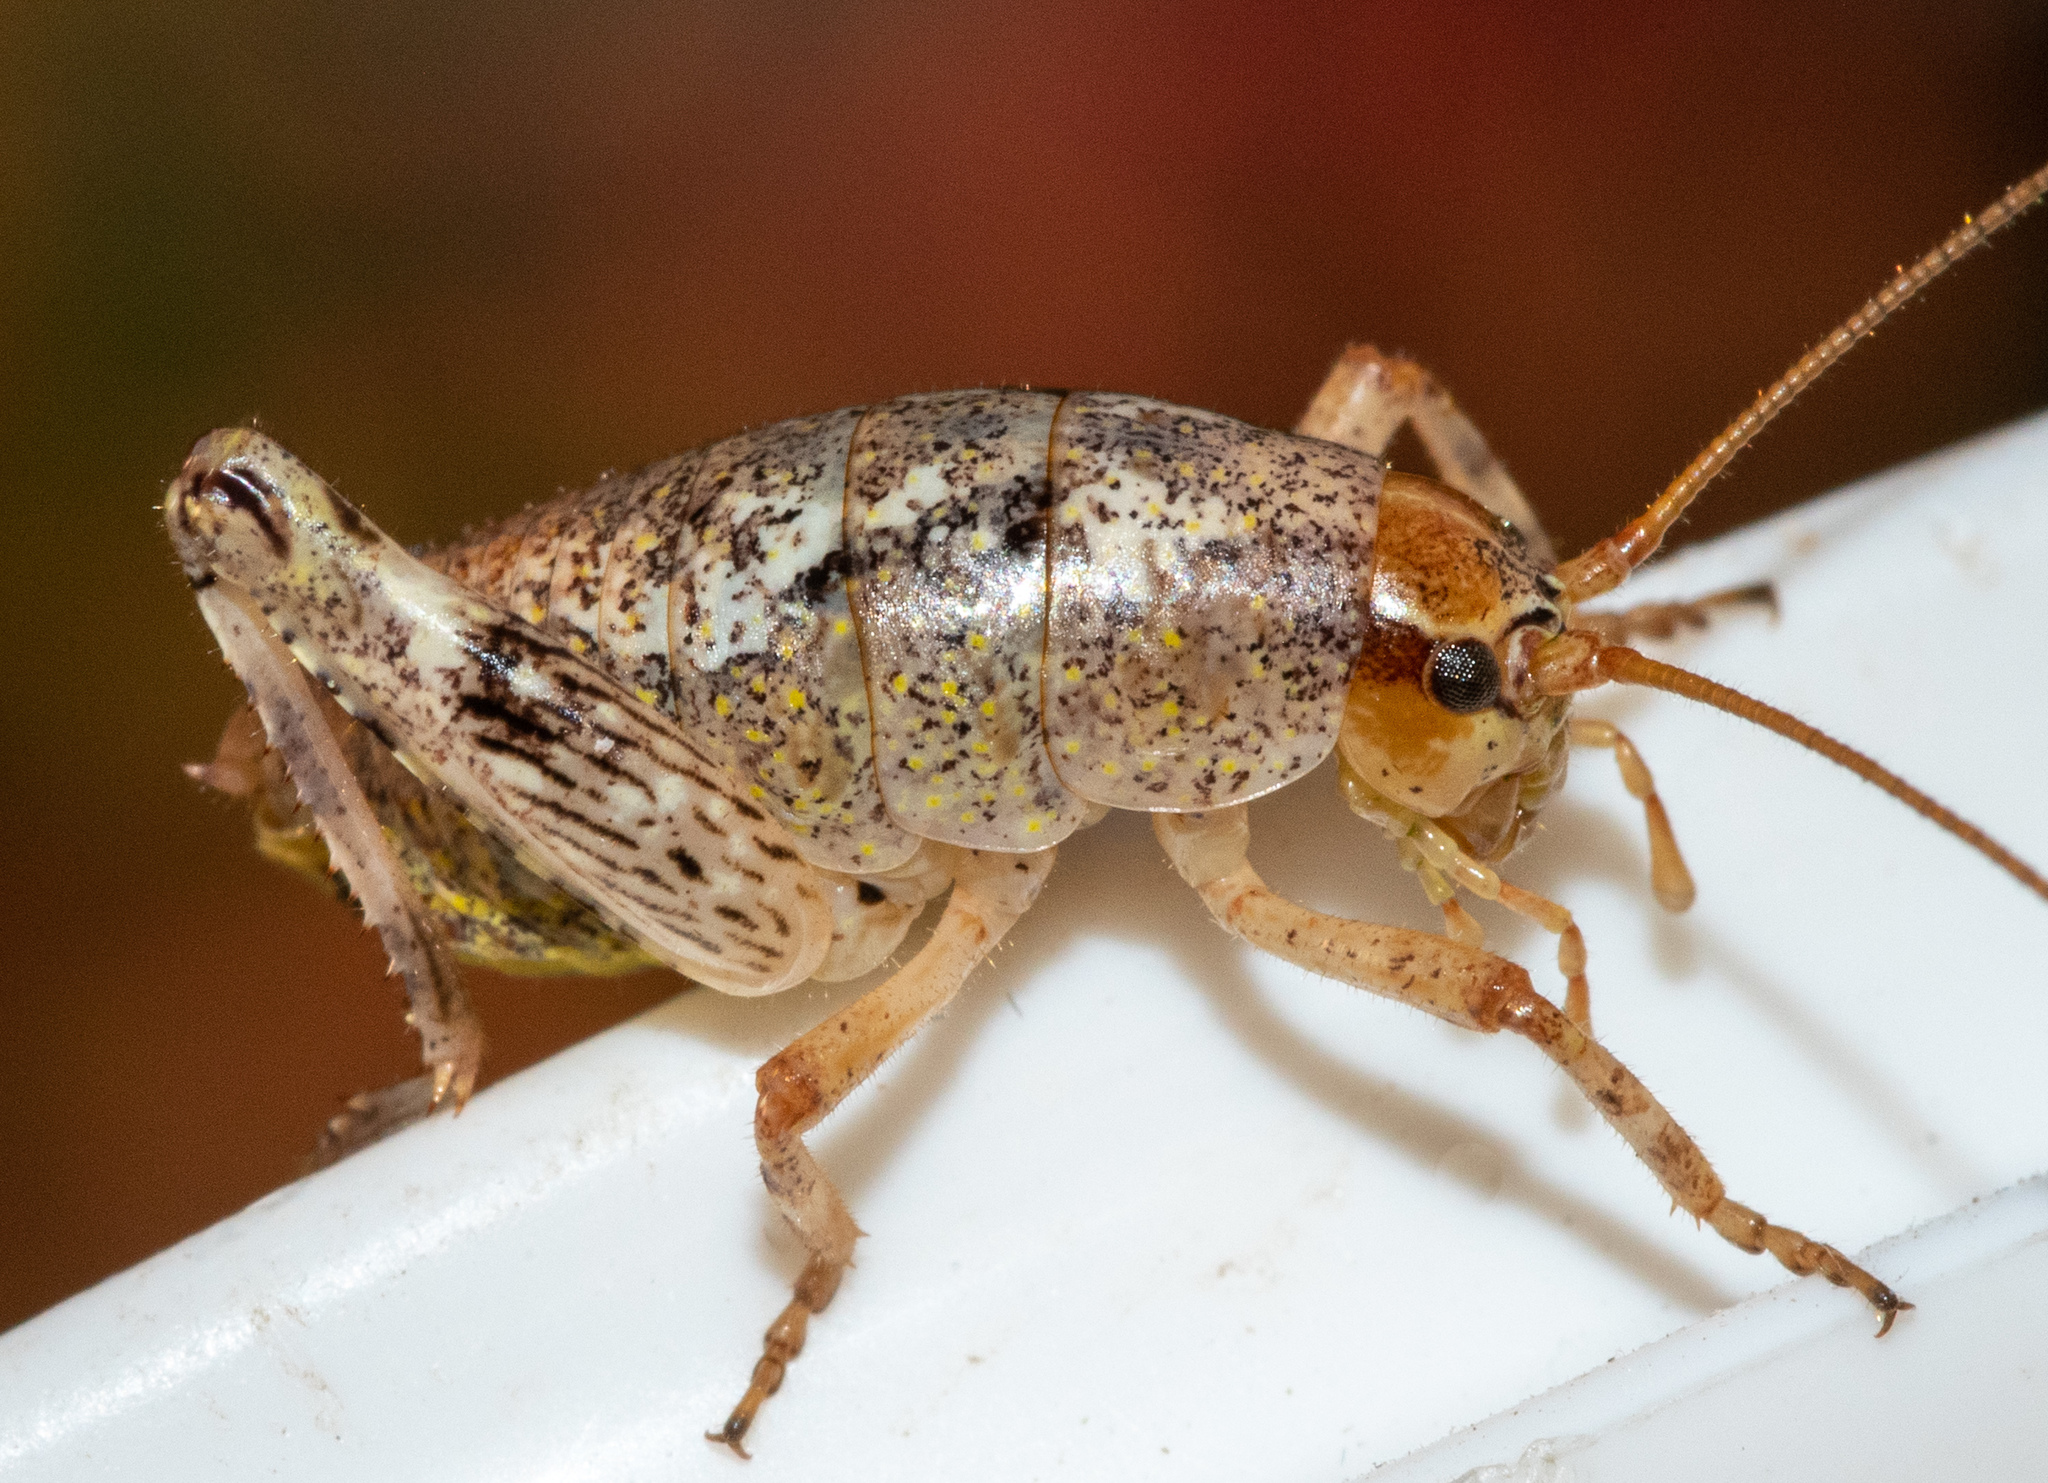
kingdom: Animalia
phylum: Arthropoda
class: Insecta
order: Orthoptera
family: Rhaphidophoridae
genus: Gammarotettix
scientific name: Gammarotettix bilobatus
